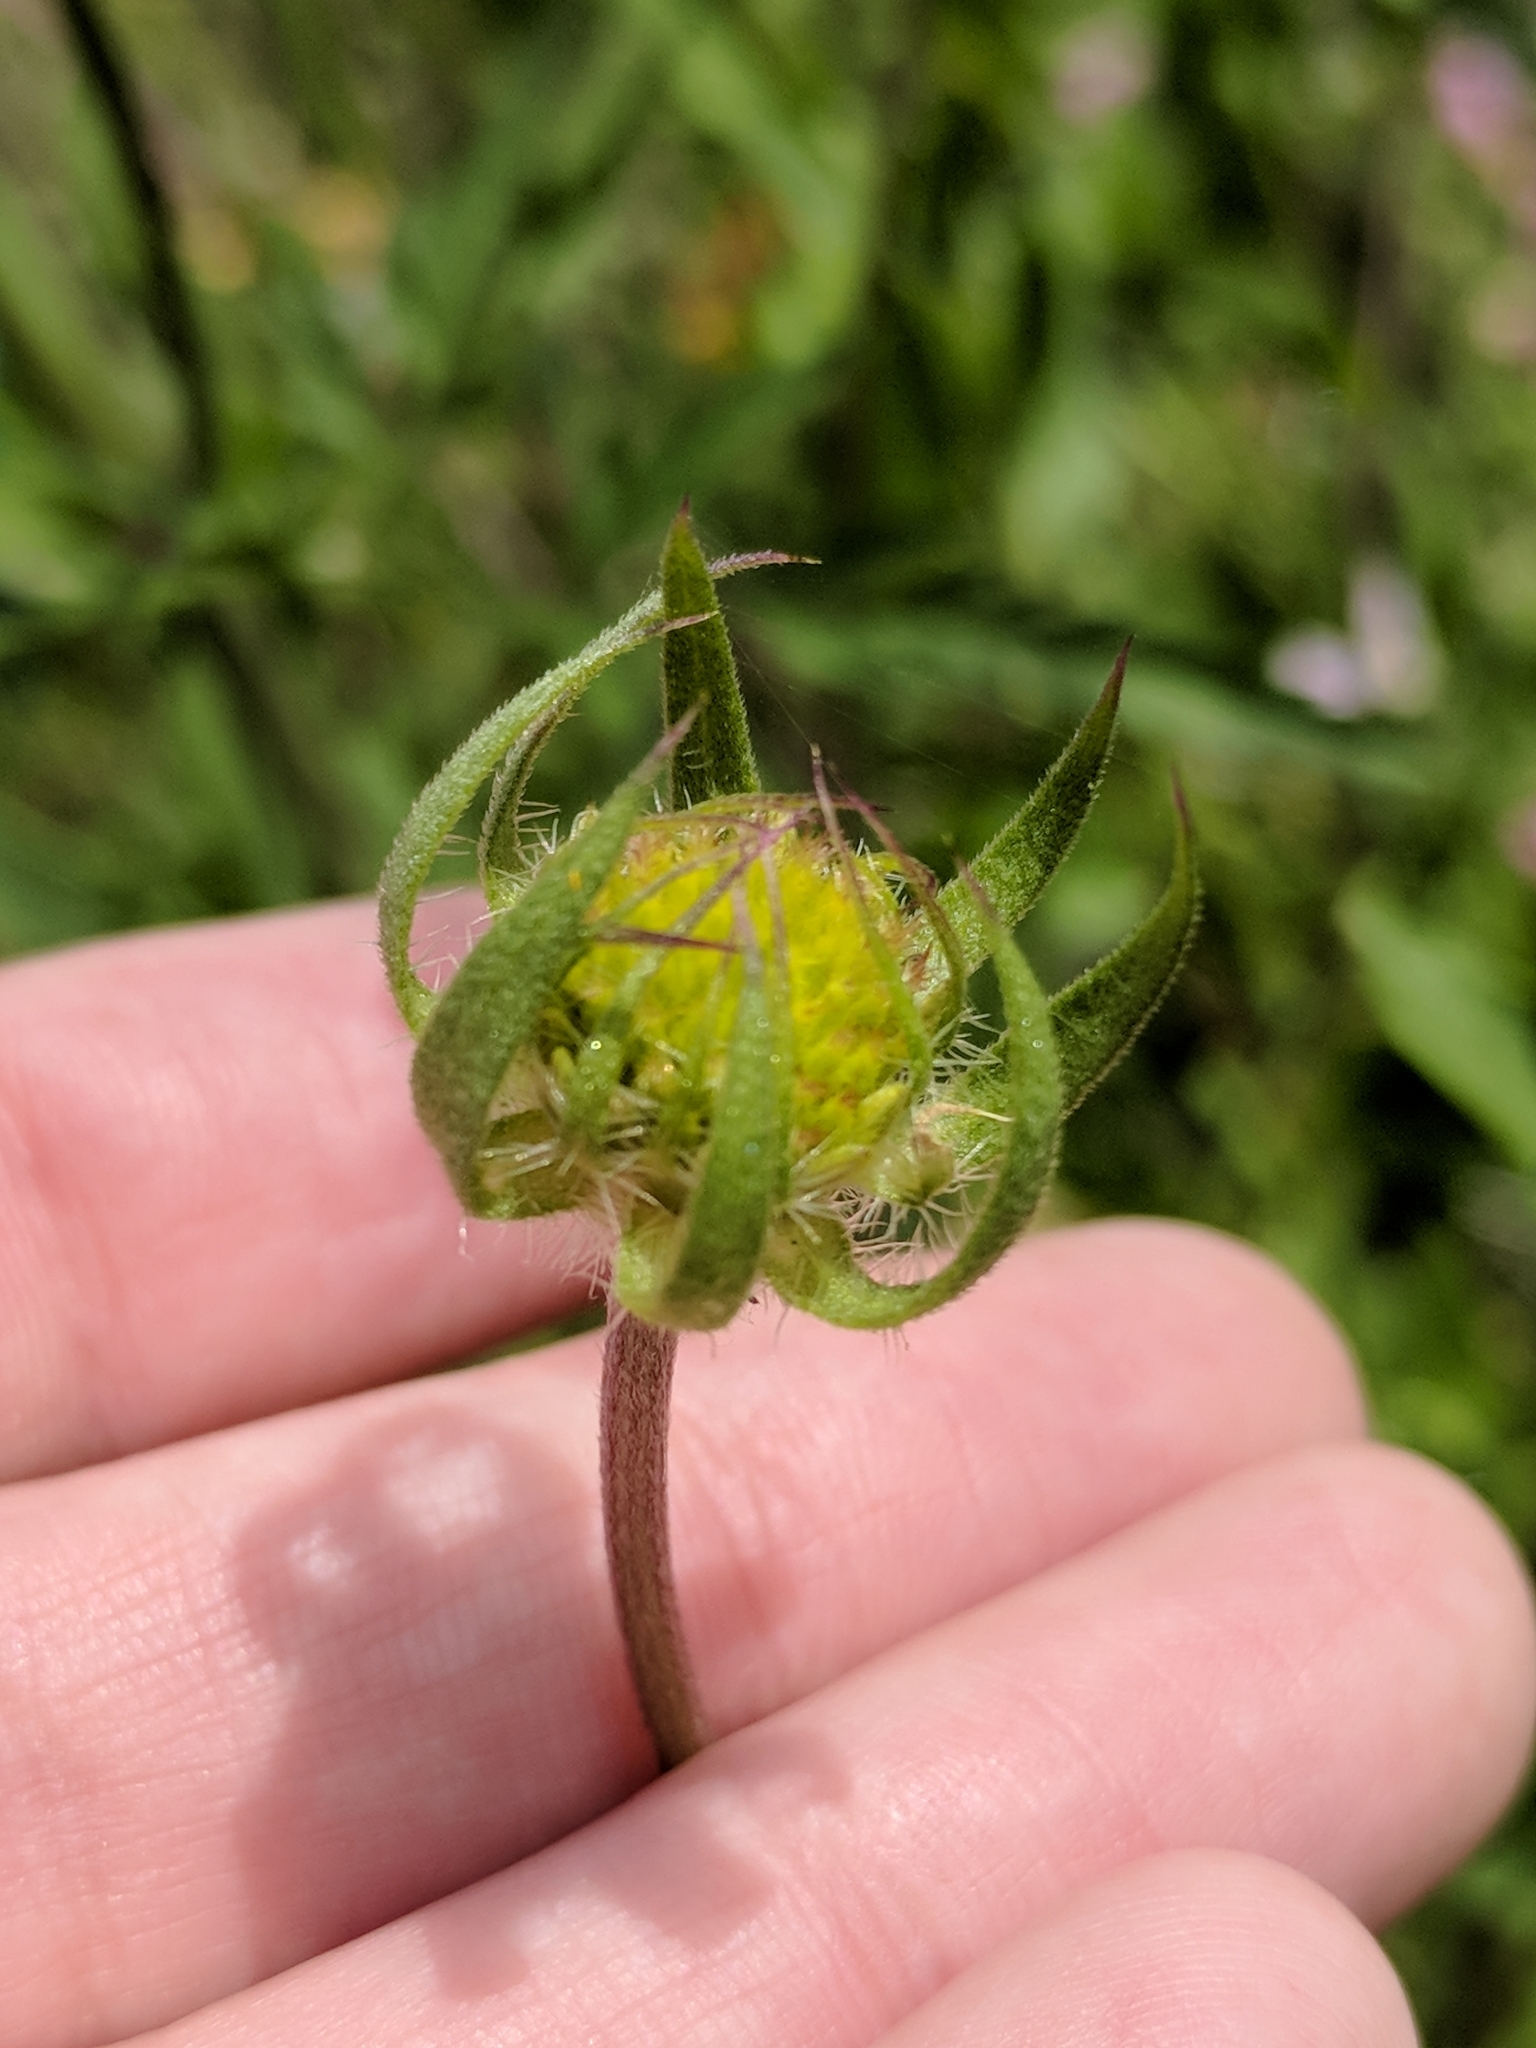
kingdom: Plantae
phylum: Tracheophyta
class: Magnoliopsida
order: Asterales
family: Asteraceae
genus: Gaillardia
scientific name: Gaillardia pulchella
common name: Firewheel
